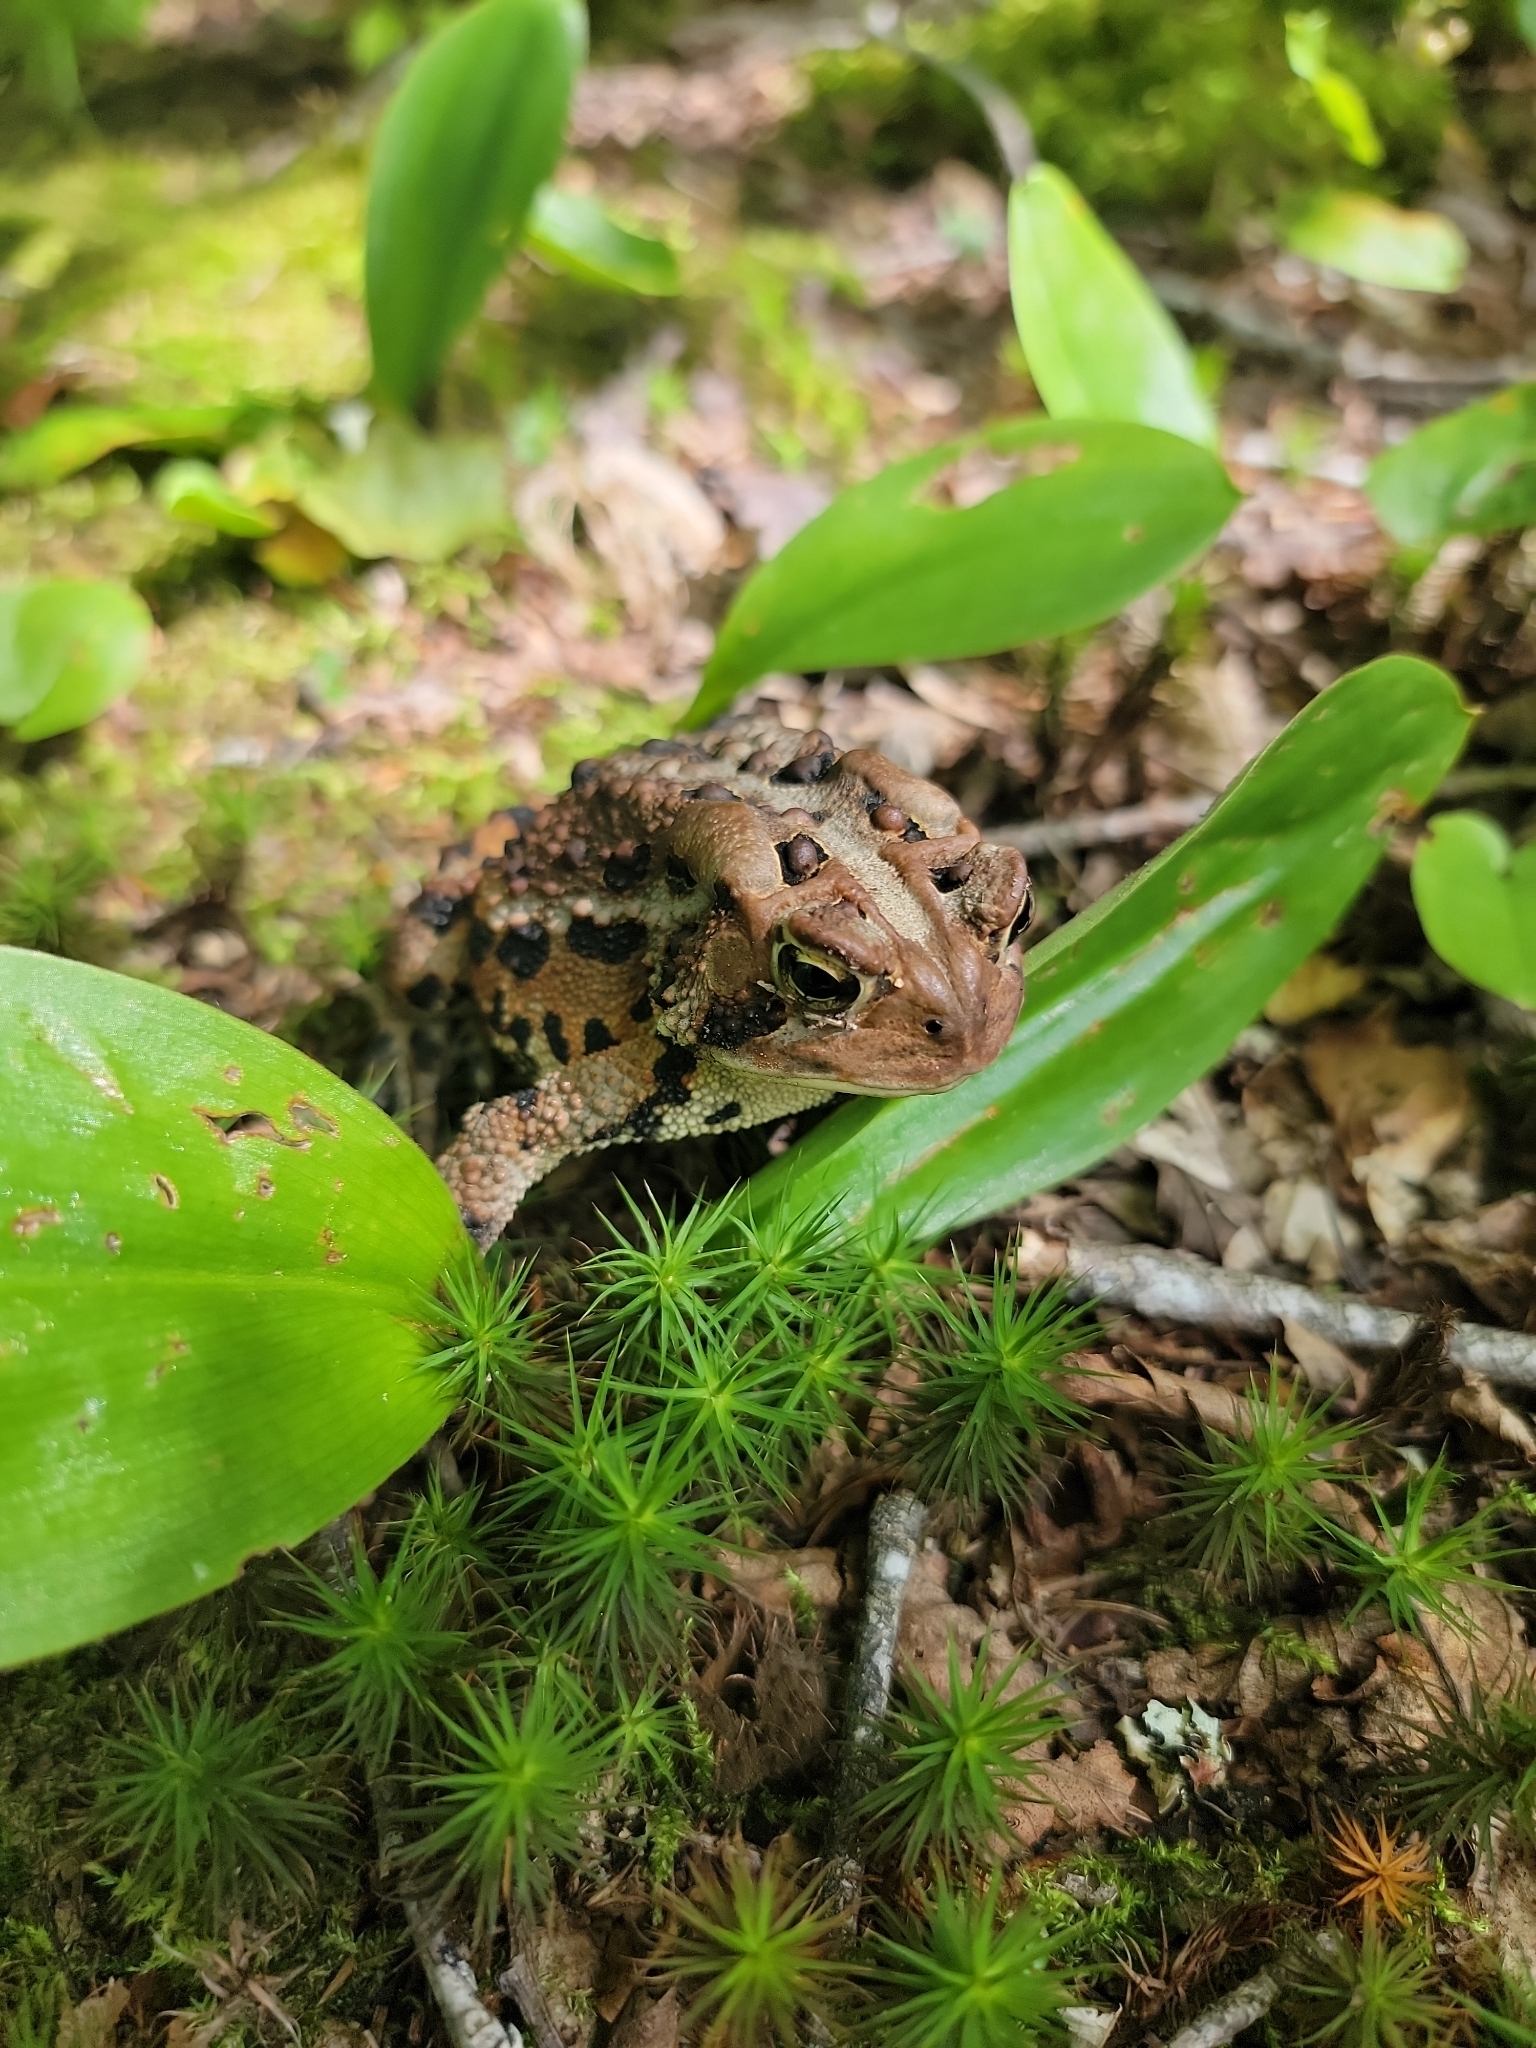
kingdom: Animalia
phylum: Chordata
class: Amphibia
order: Anura
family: Bufonidae
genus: Anaxyrus
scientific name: Anaxyrus americanus
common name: American toad
